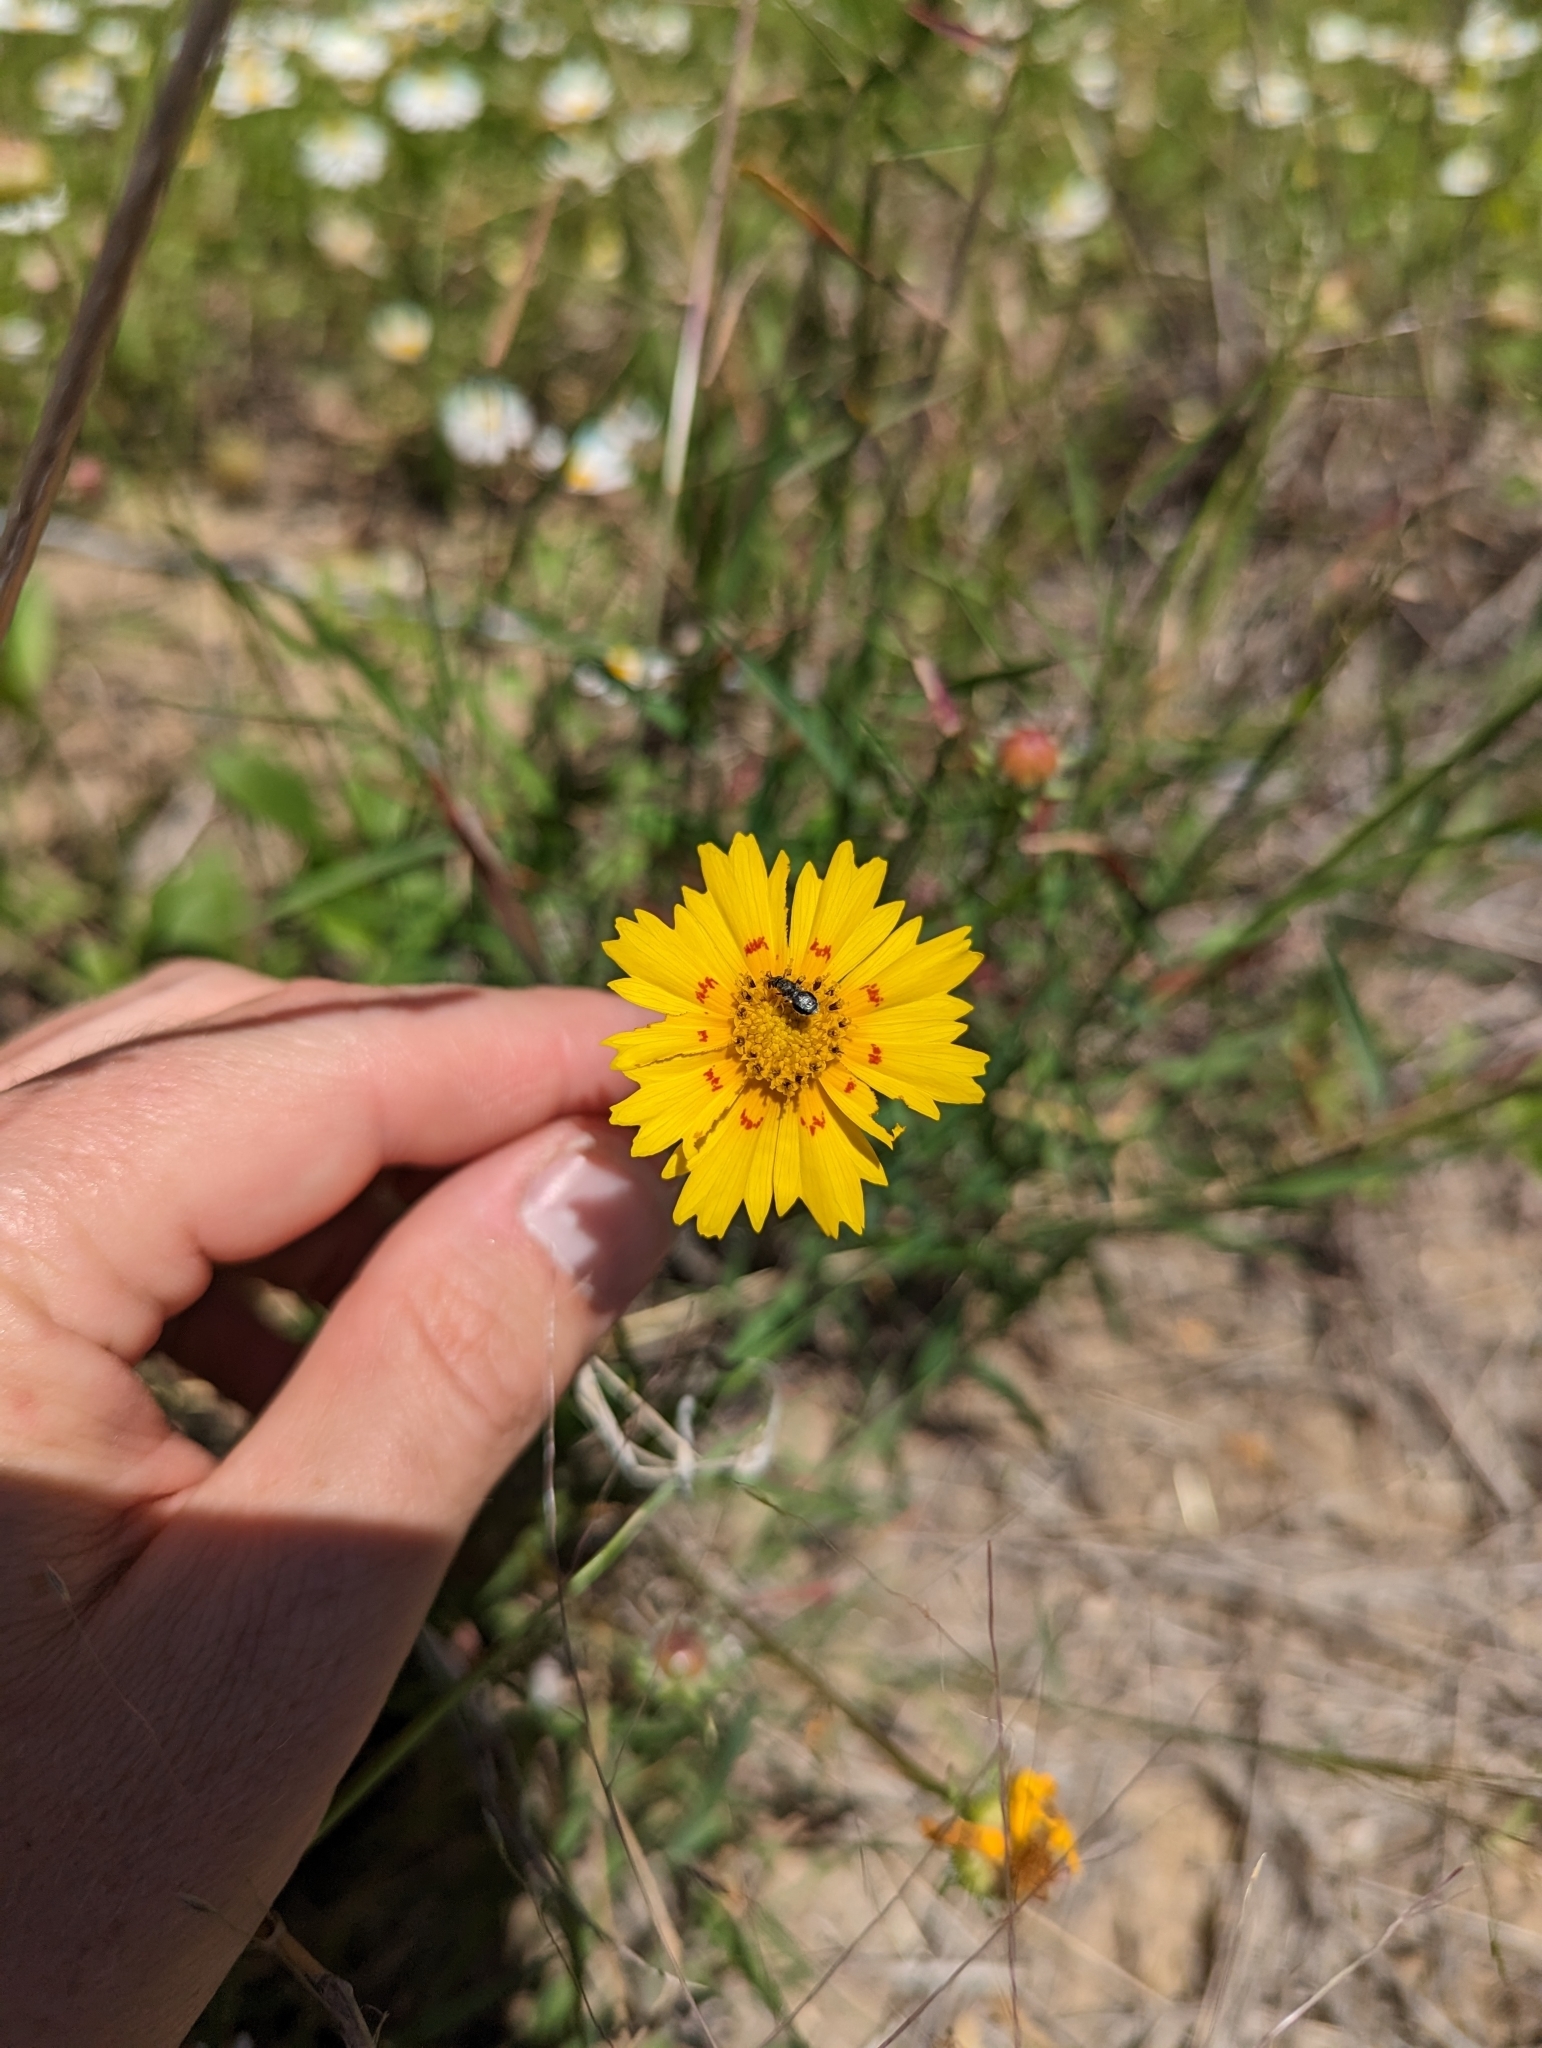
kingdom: Plantae
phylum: Tracheophyta
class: Magnoliopsida
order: Asterales
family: Asteraceae
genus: Coreopsis
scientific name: Coreopsis nuecensis
